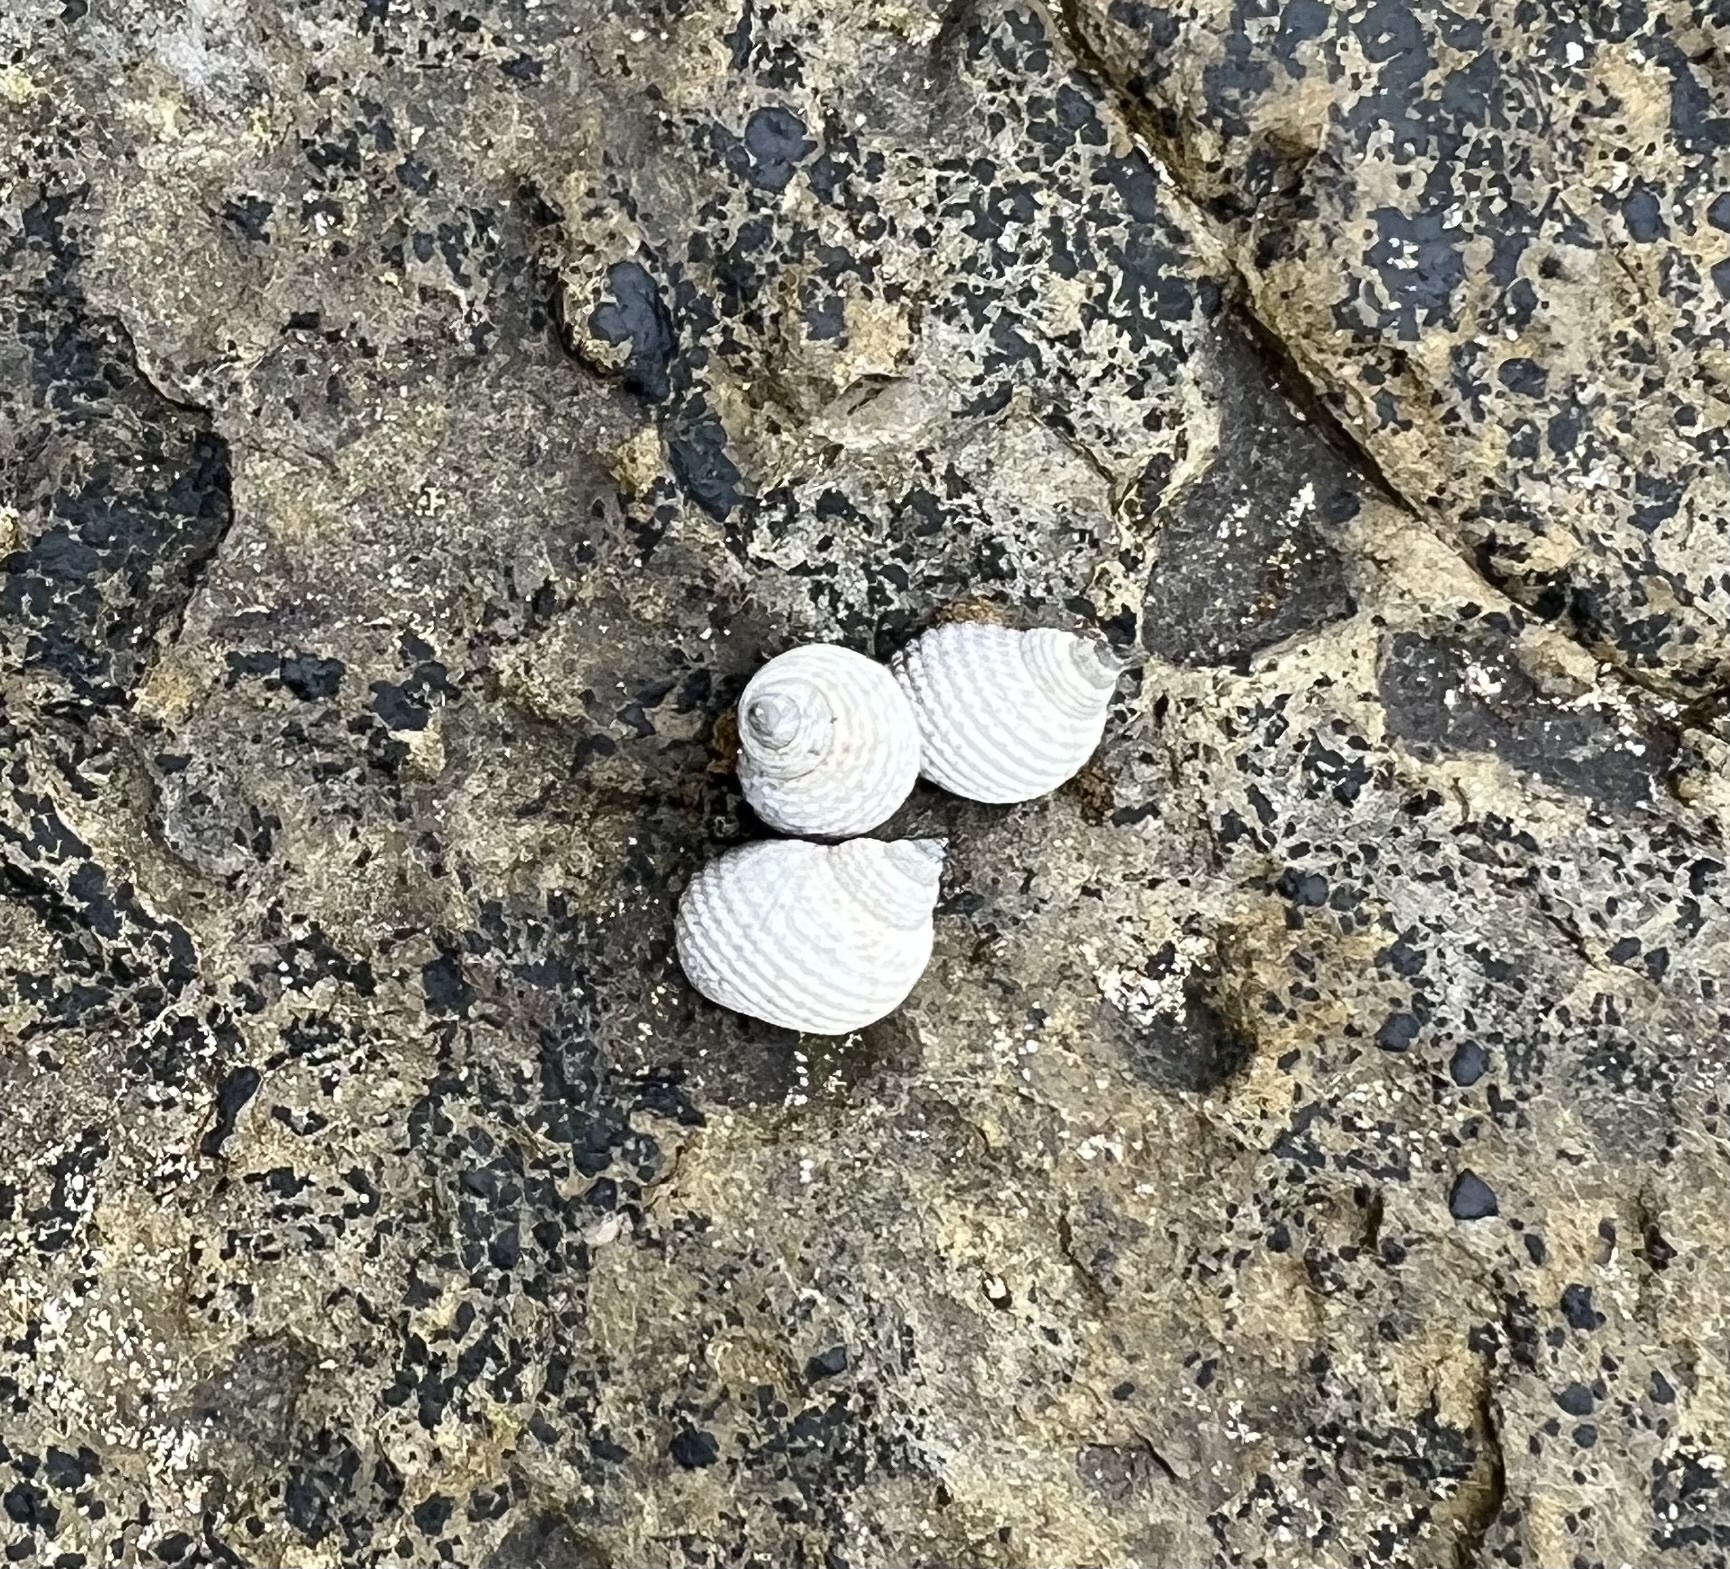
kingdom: Animalia
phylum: Mollusca
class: Gastropoda
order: Littorinimorpha
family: Littorinidae
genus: Echinolittorina
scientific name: Echinolittorina modesta
